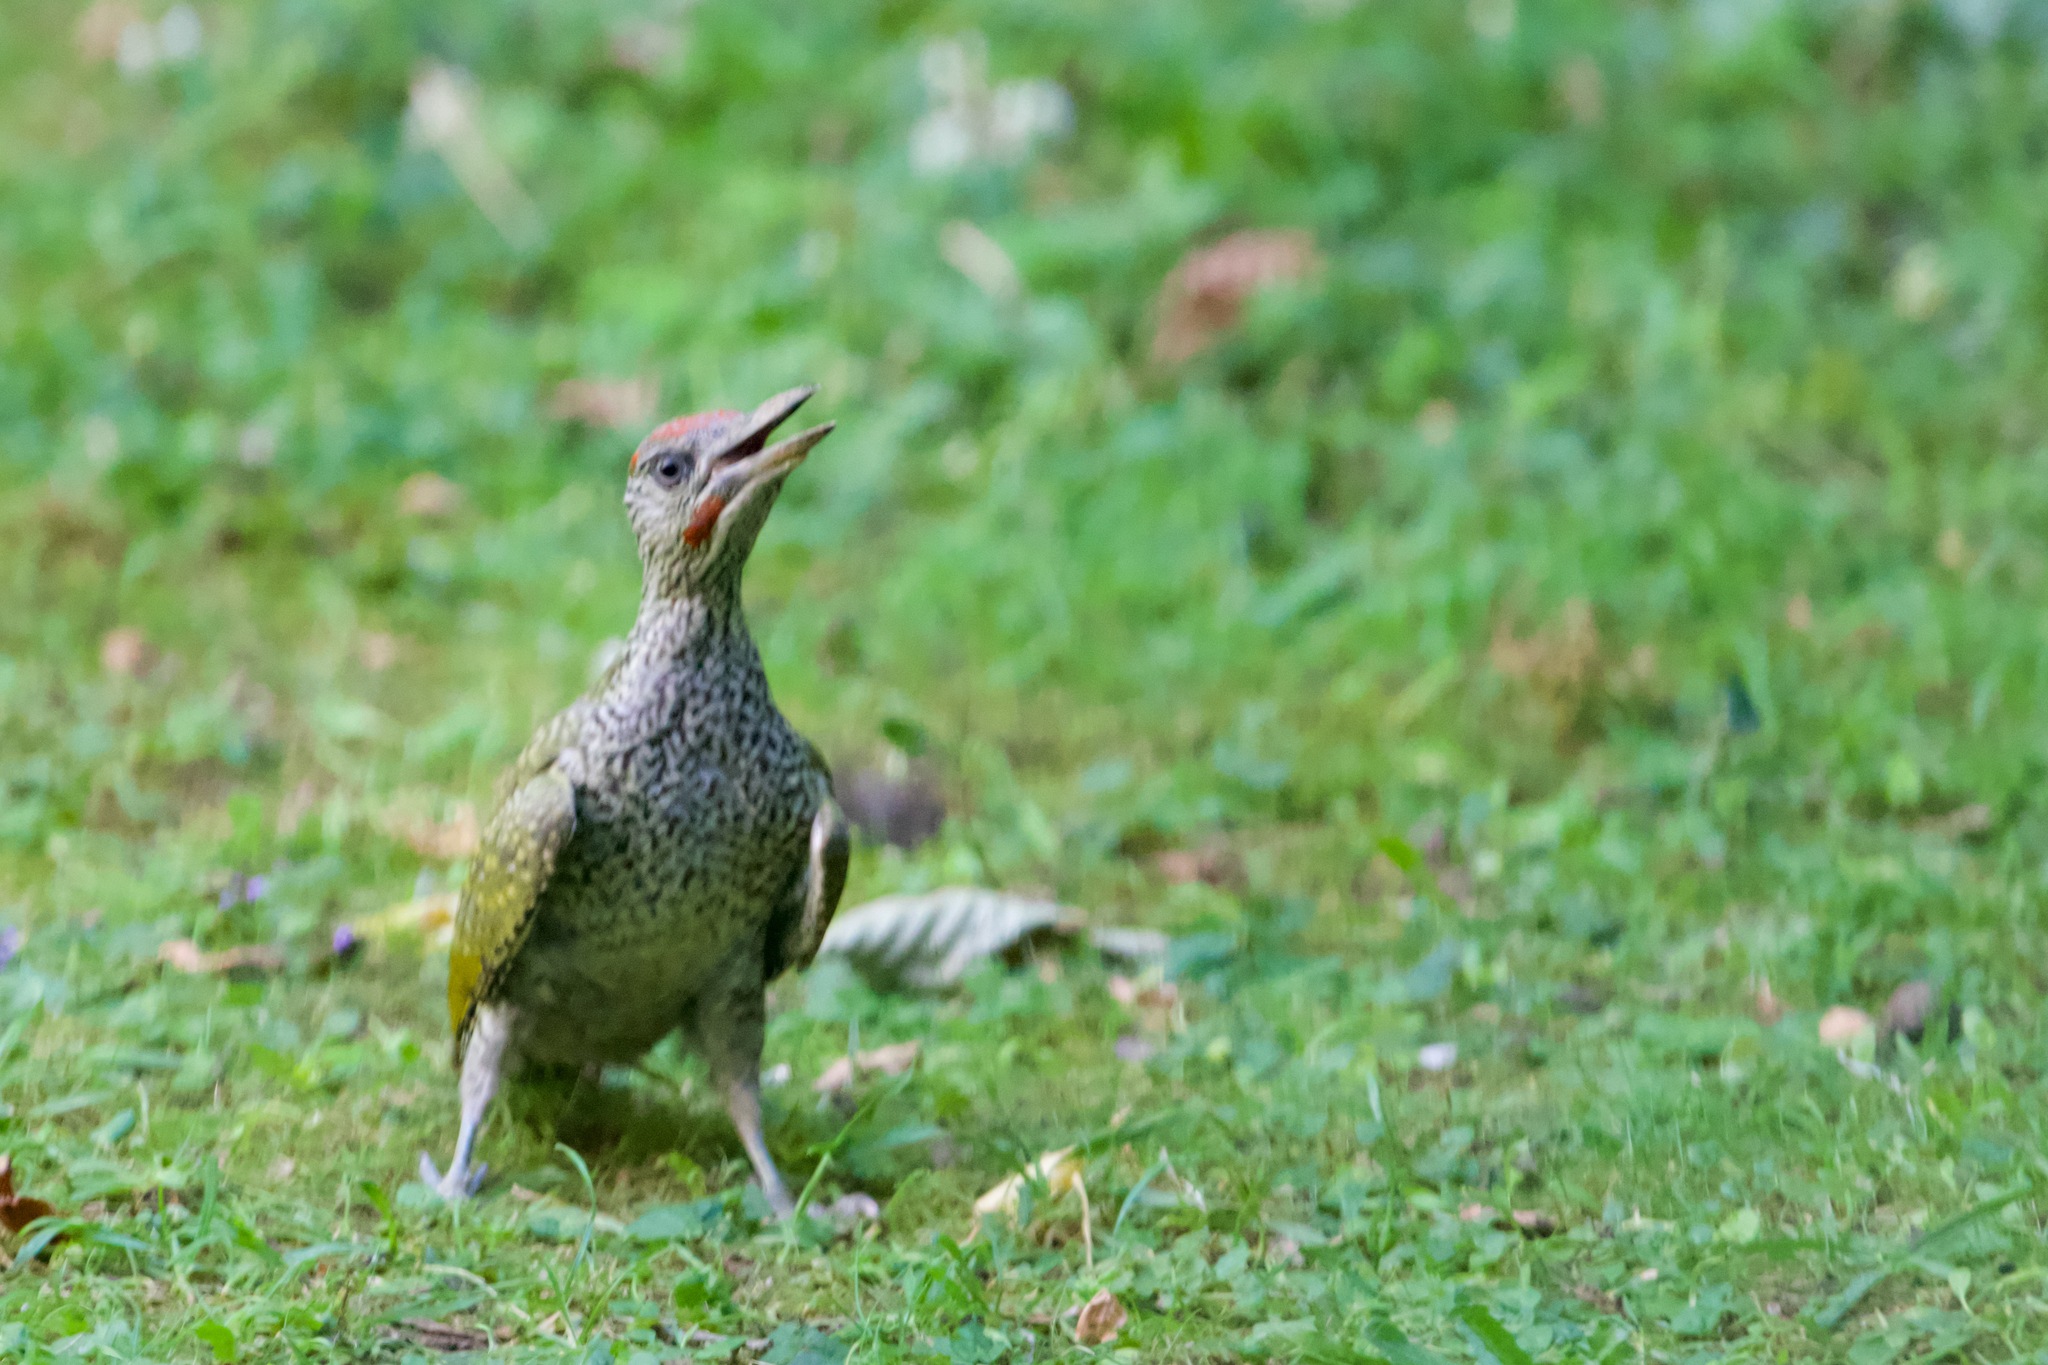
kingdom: Animalia
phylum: Chordata
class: Aves
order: Piciformes
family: Picidae
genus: Picus
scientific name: Picus viridis
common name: European green woodpecker
